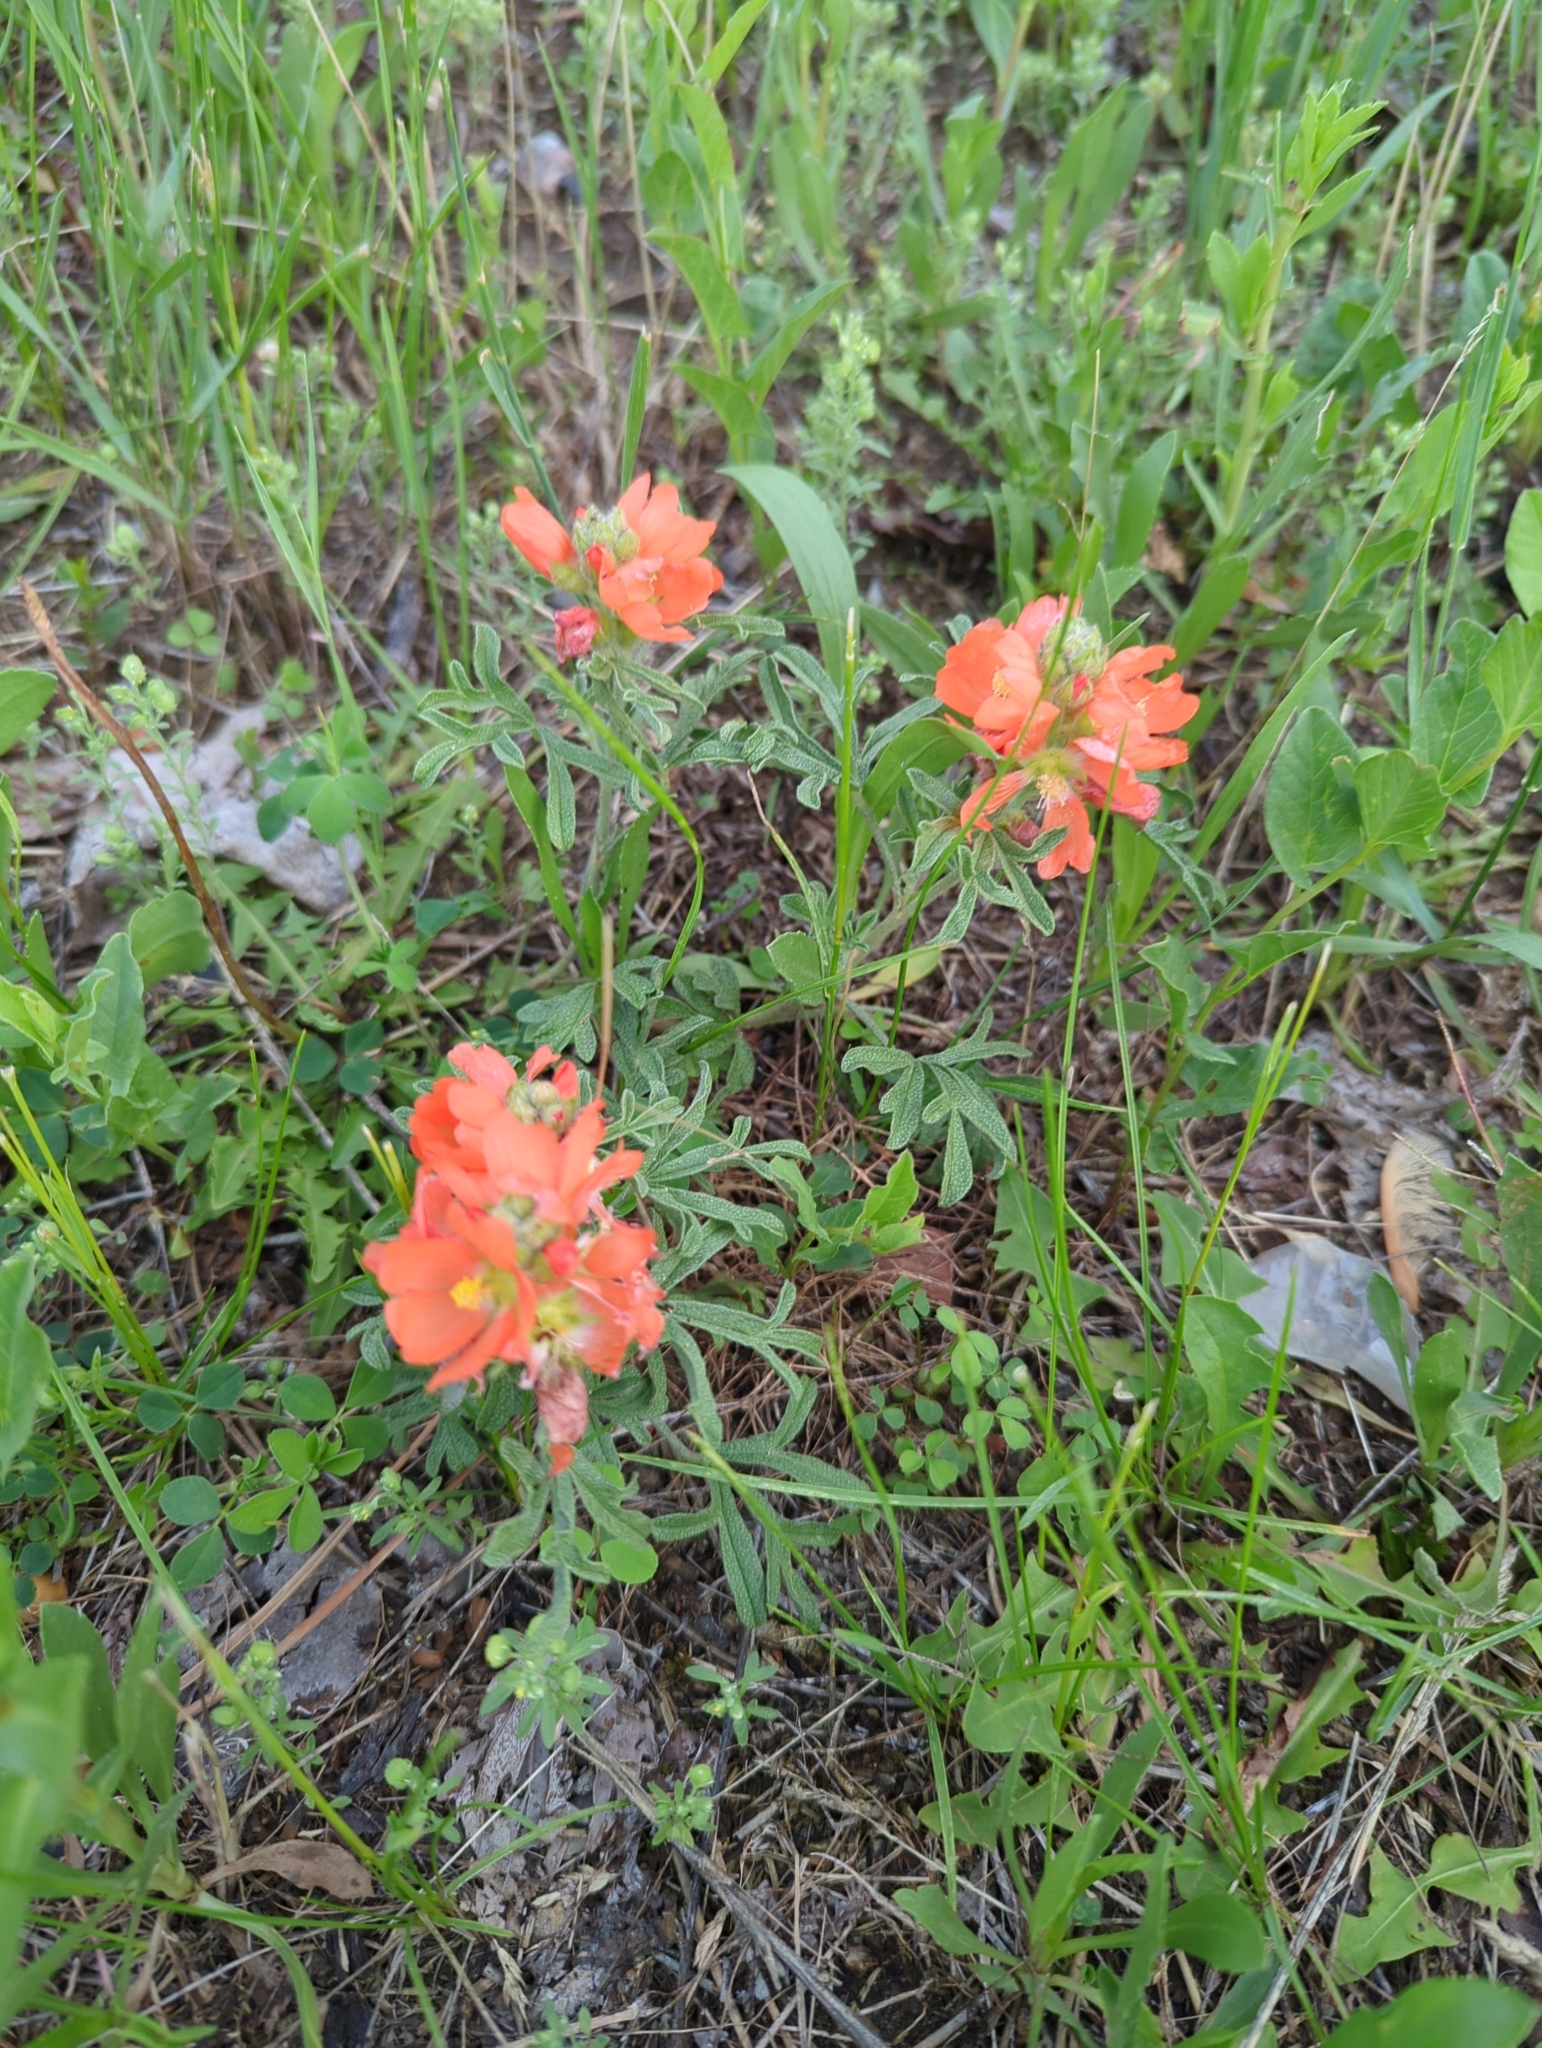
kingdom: Plantae
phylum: Tracheophyta
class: Magnoliopsida
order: Malvales
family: Malvaceae
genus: Sphaeralcea
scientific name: Sphaeralcea coccinea
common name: Moss-rose
